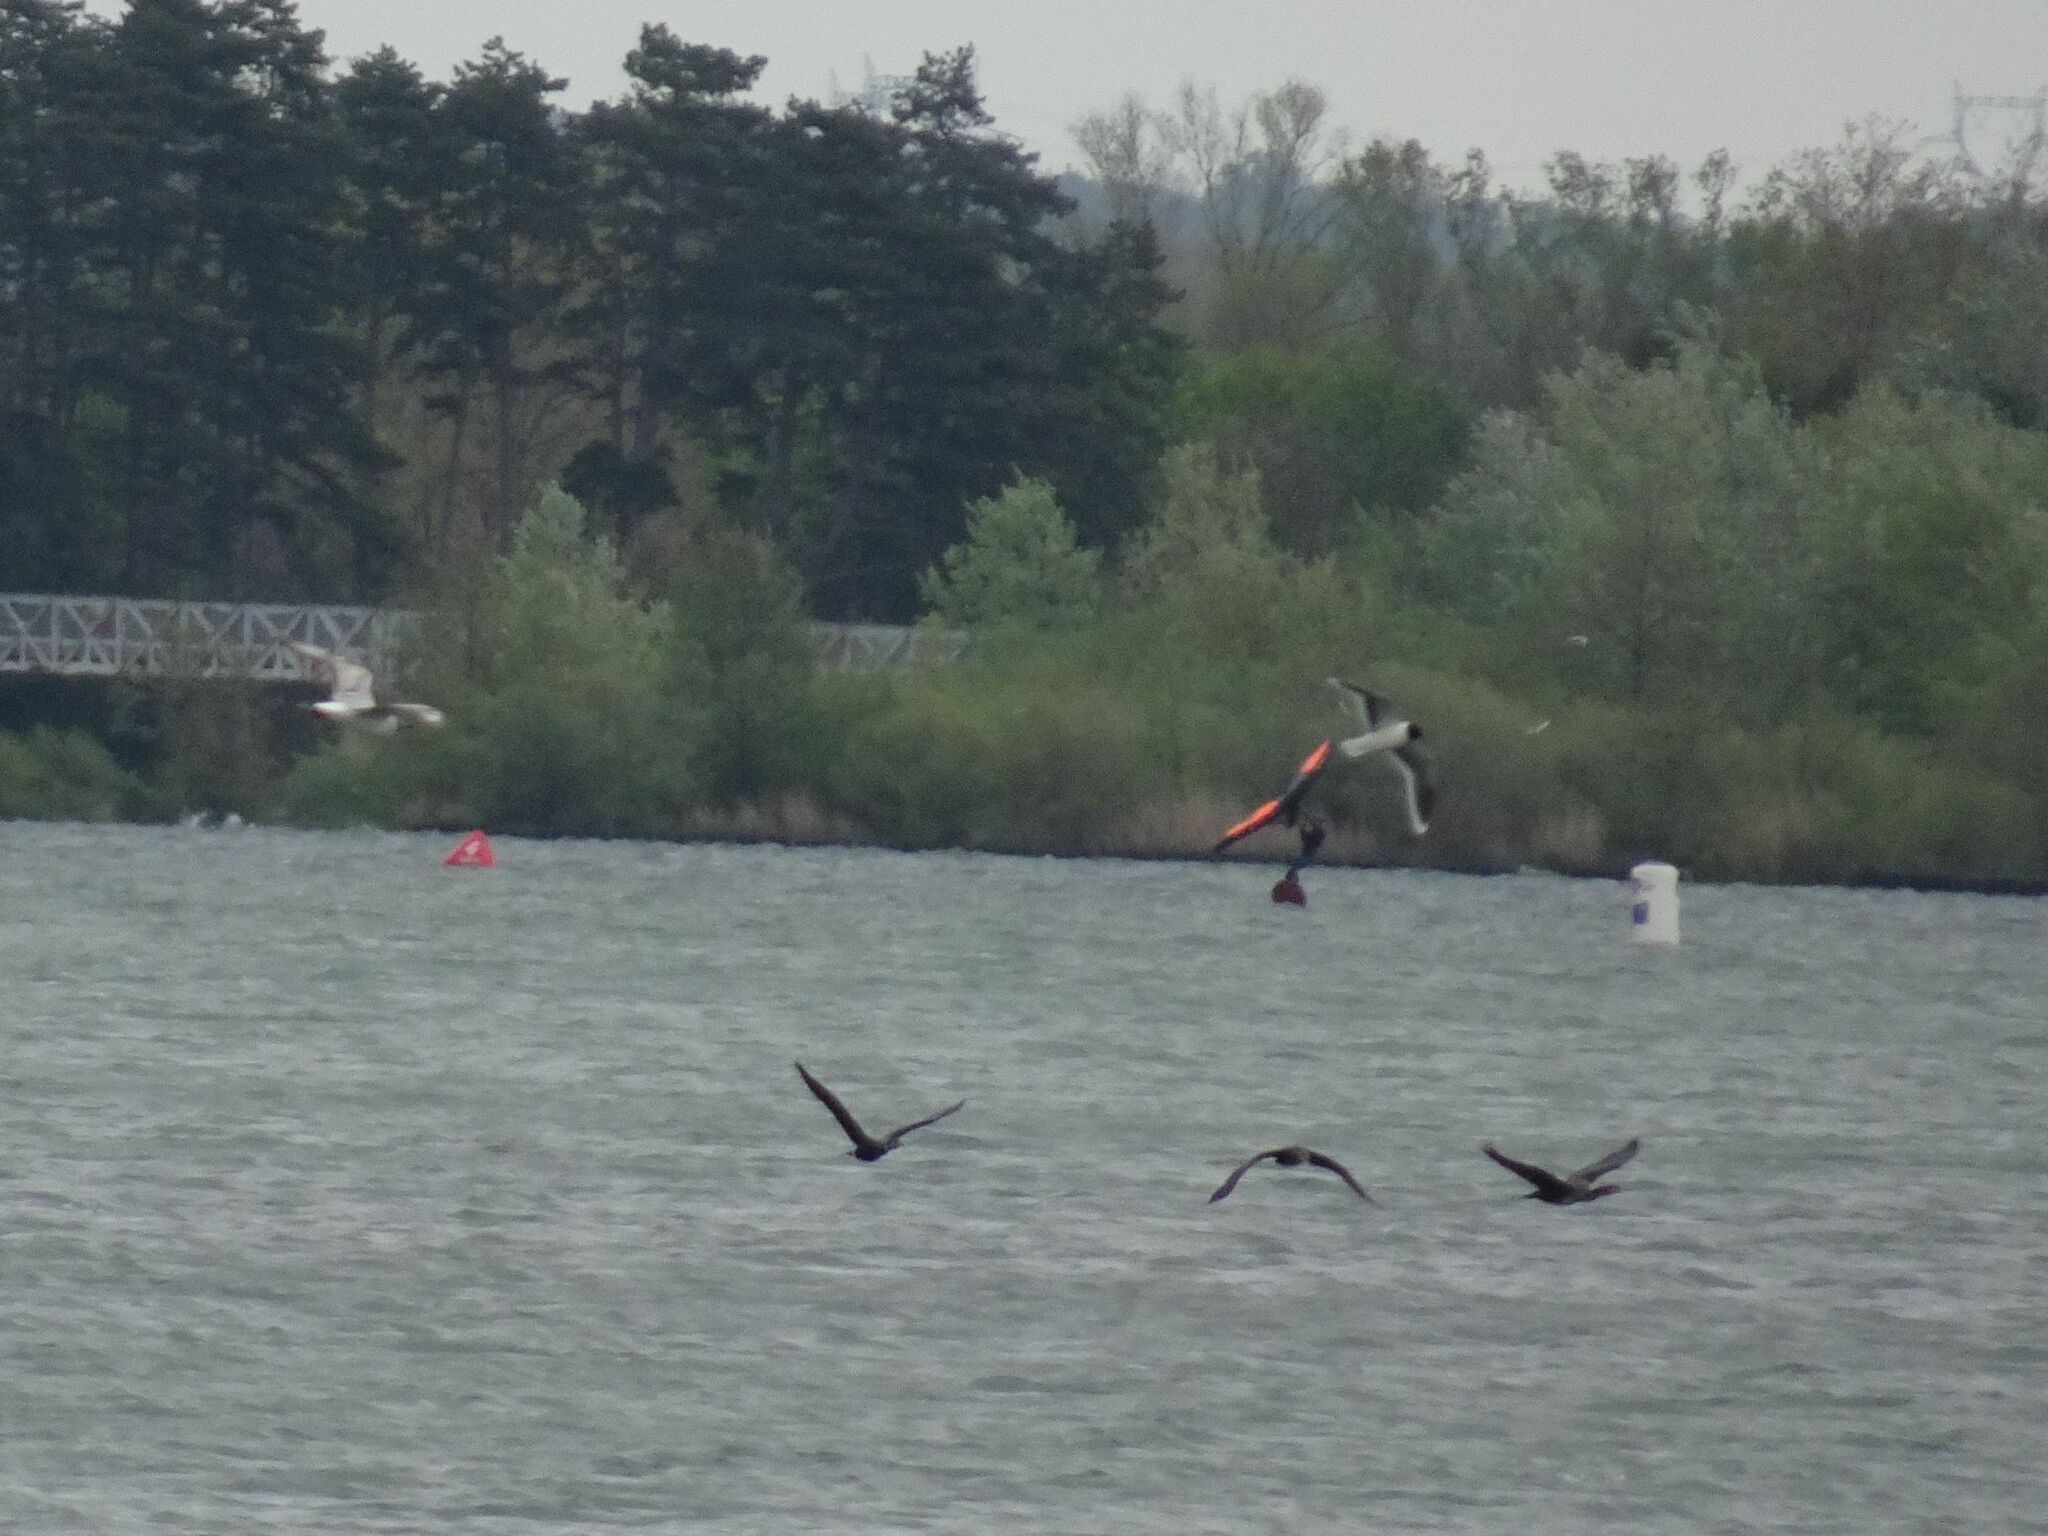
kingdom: Animalia
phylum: Chordata
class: Aves
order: Charadriiformes
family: Laridae
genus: Hydrocoloeus
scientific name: Hydrocoloeus minutus
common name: Little gull
